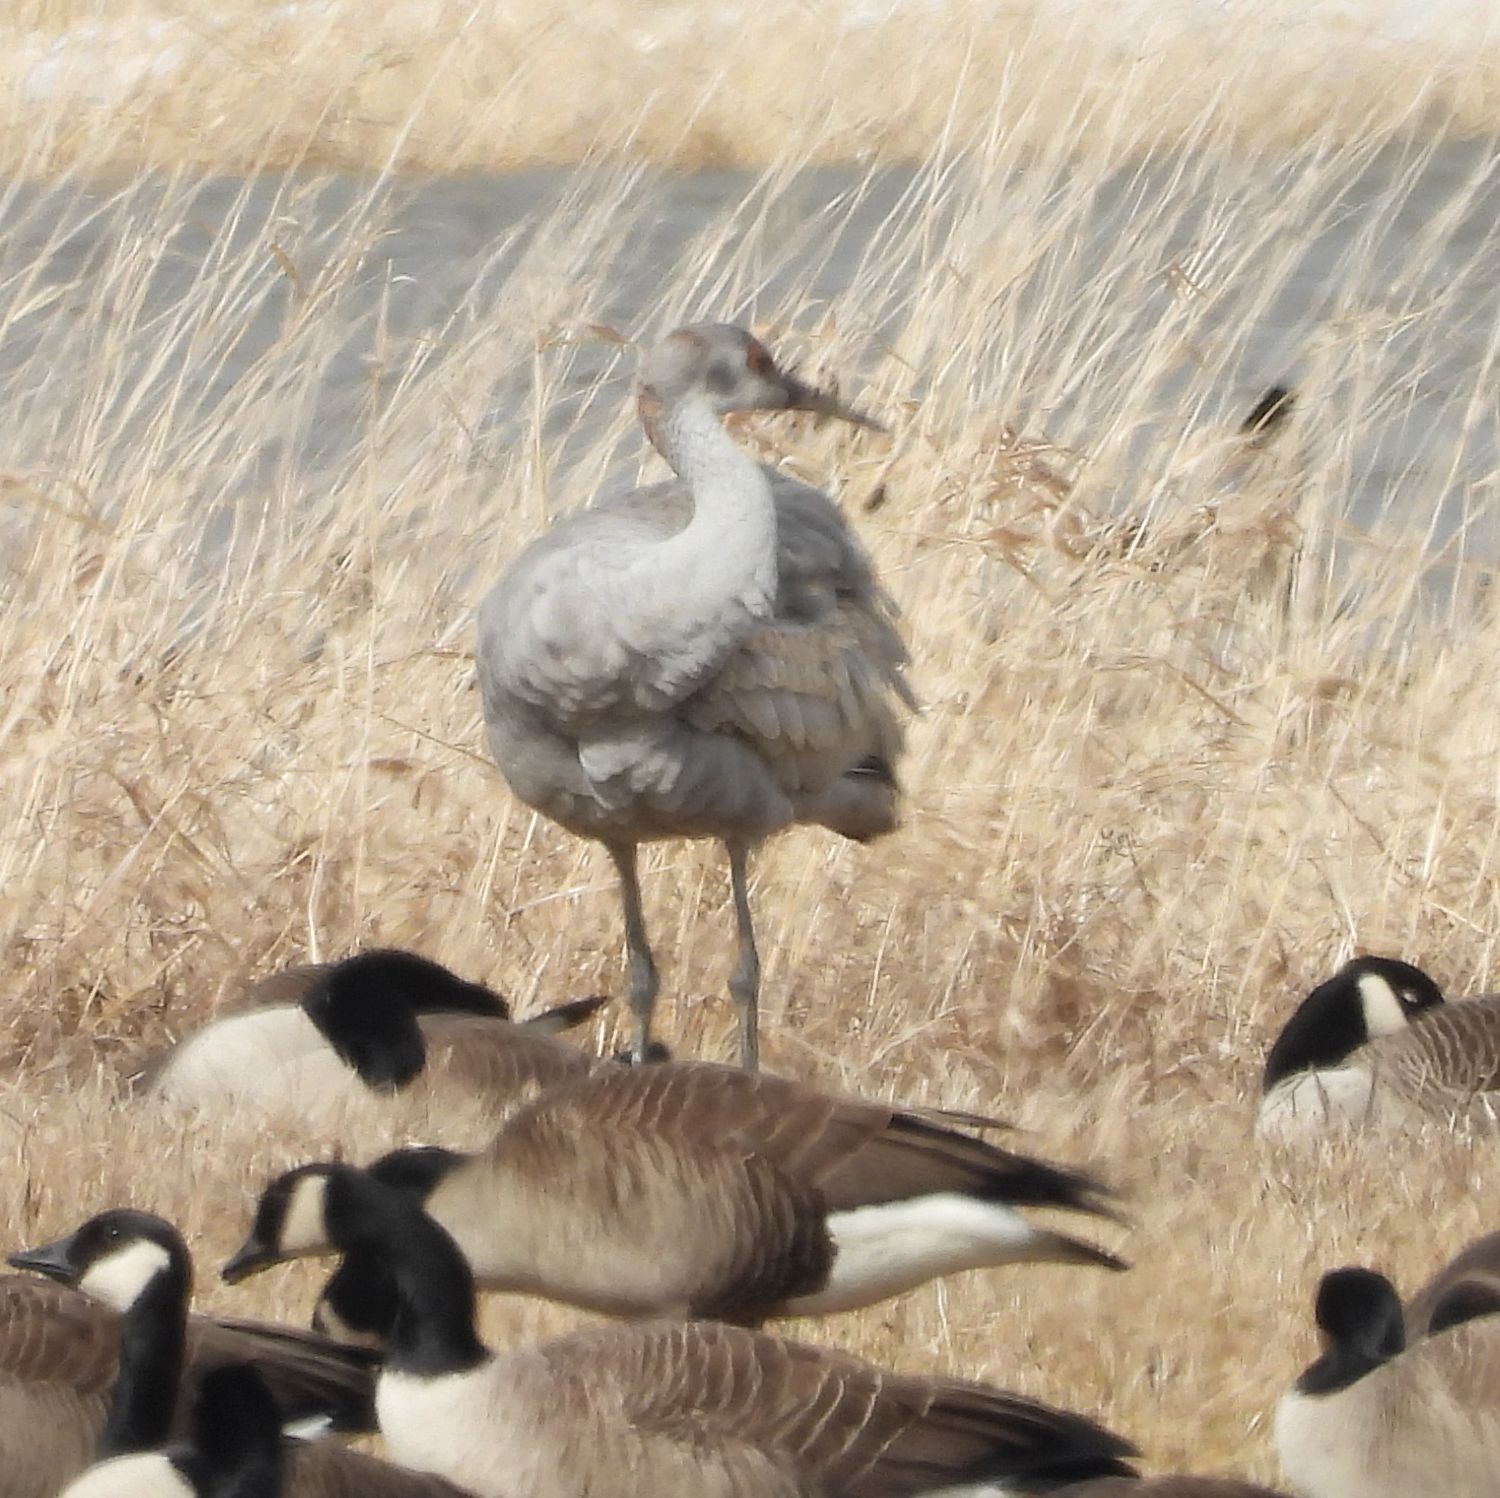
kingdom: Animalia
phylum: Chordata
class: Aves
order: Gruiformes
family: Gruidae
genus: Grus
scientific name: Grus canadensis
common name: Sandhill crane
